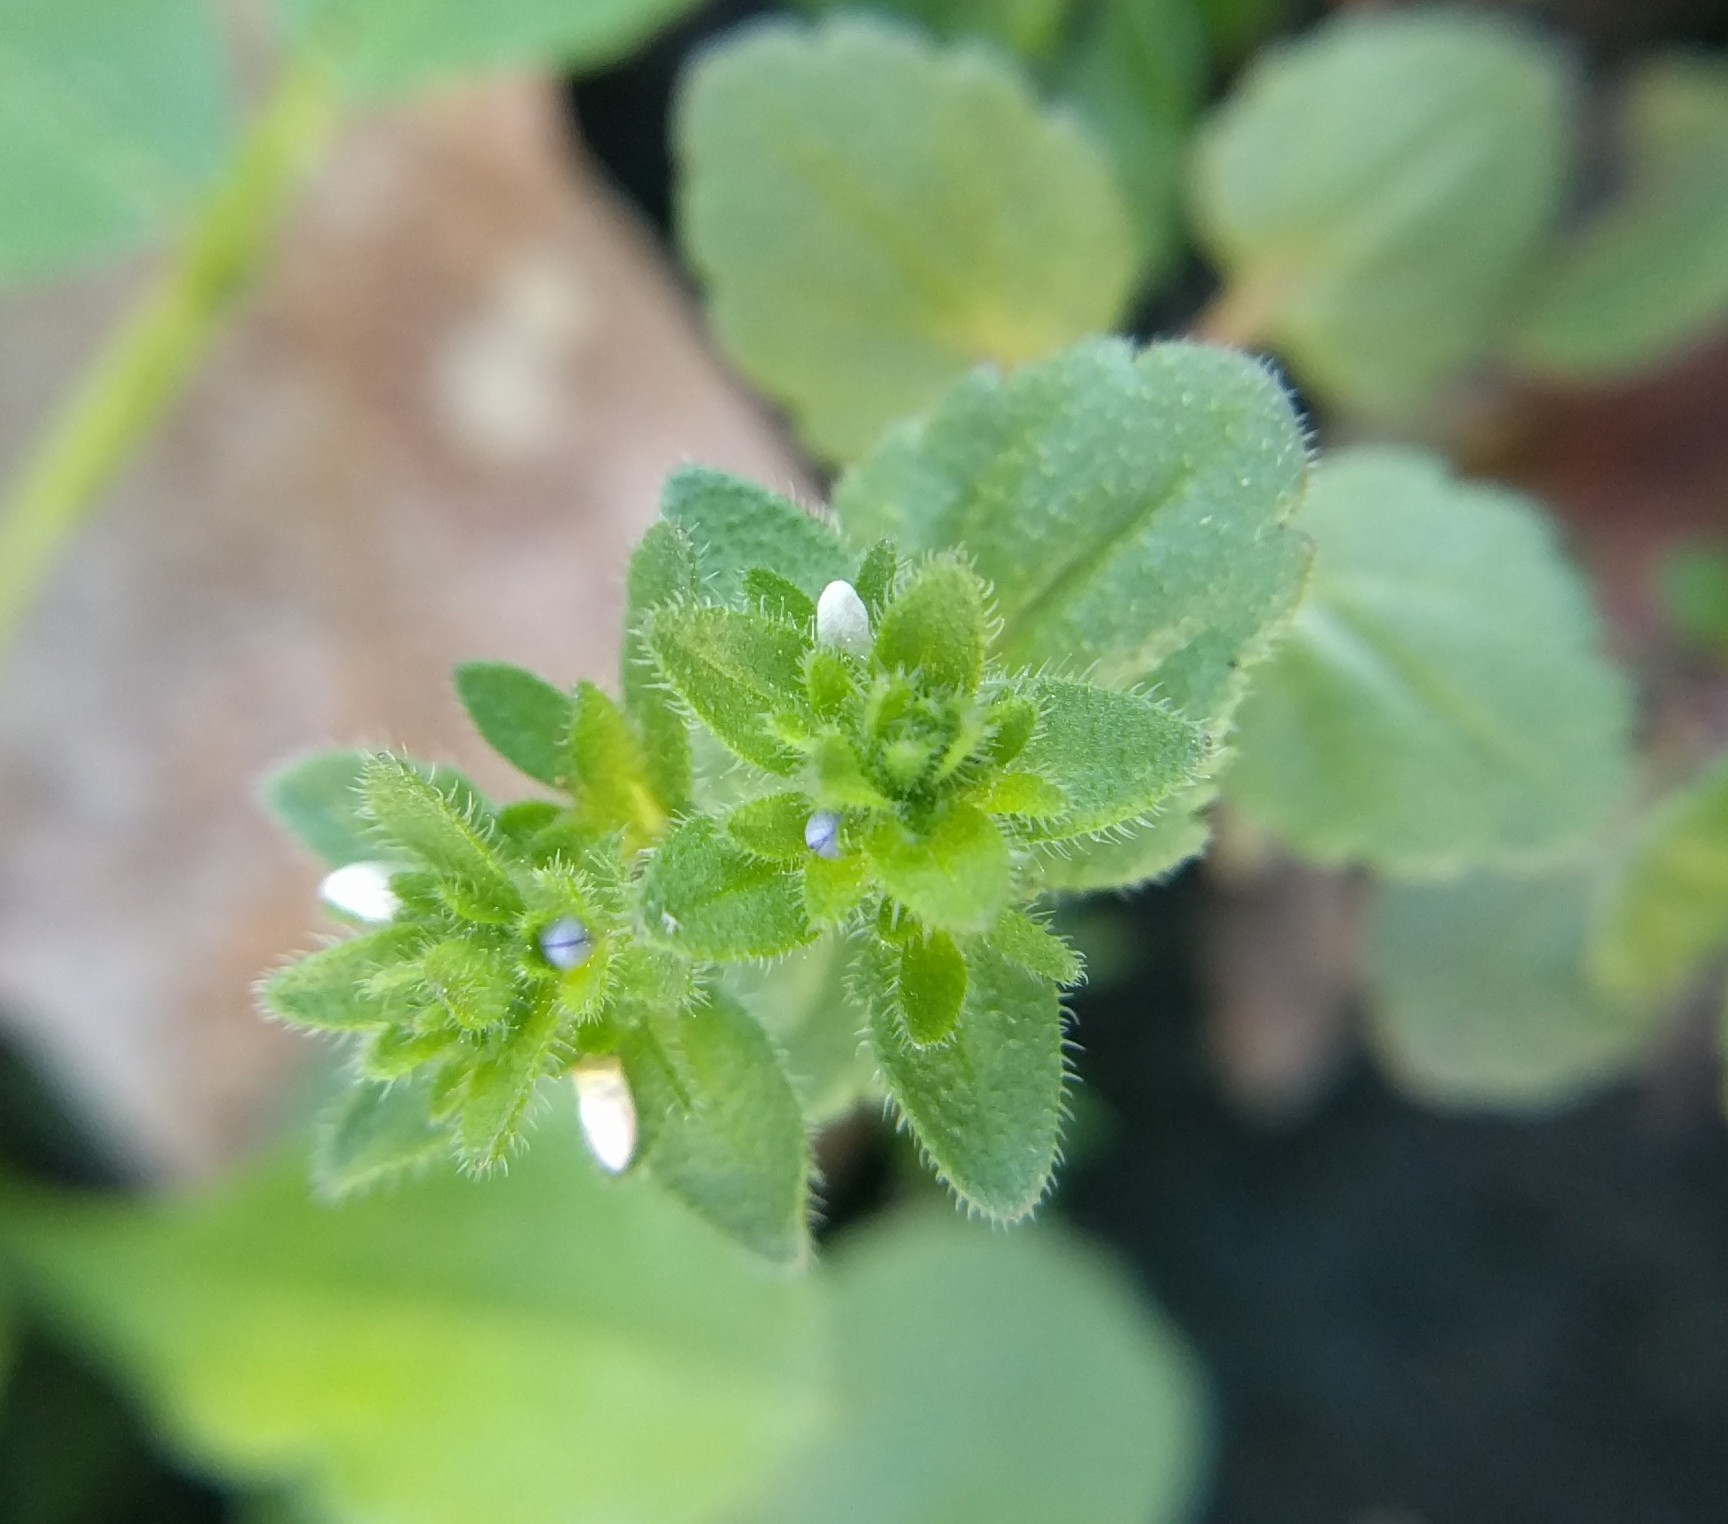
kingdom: Plantae
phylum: Tracheophyta
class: Magnoliopsida
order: Lamiales
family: Plantaginaceae
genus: Veronica
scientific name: Veronica arvensis
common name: Corn speedwell
